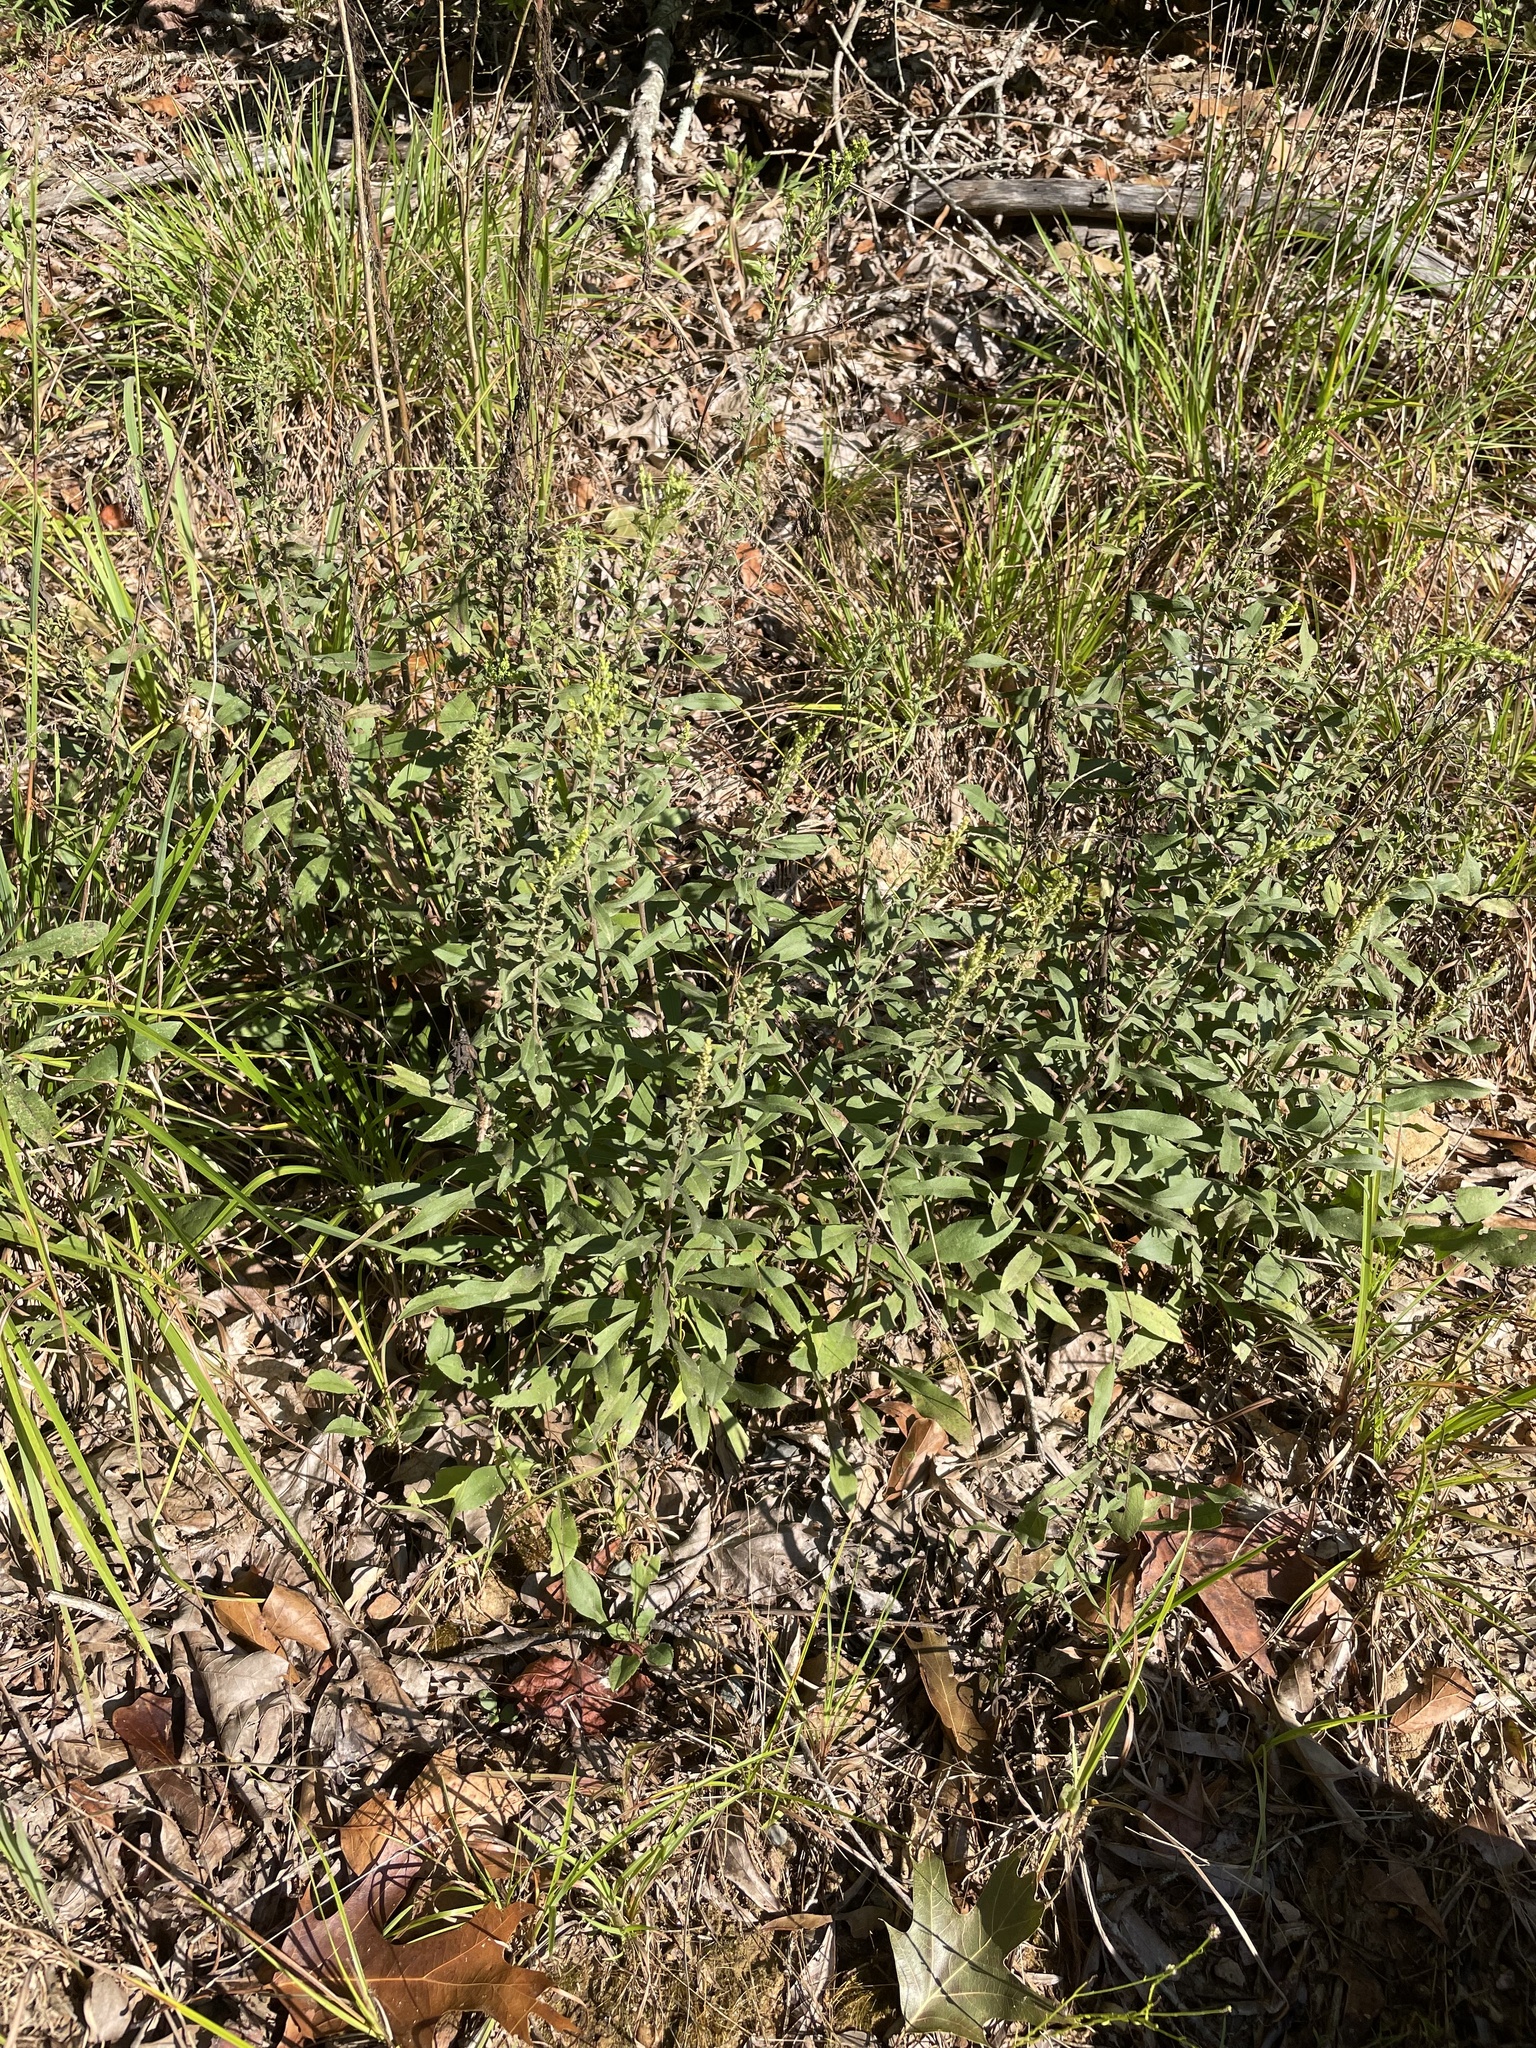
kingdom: Plantae
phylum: Tracheophyta
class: Magnoliopsida
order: Asterales
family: Asteraceae
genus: Solidago
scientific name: Solidago nemoralis
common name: Grey goldenrod
